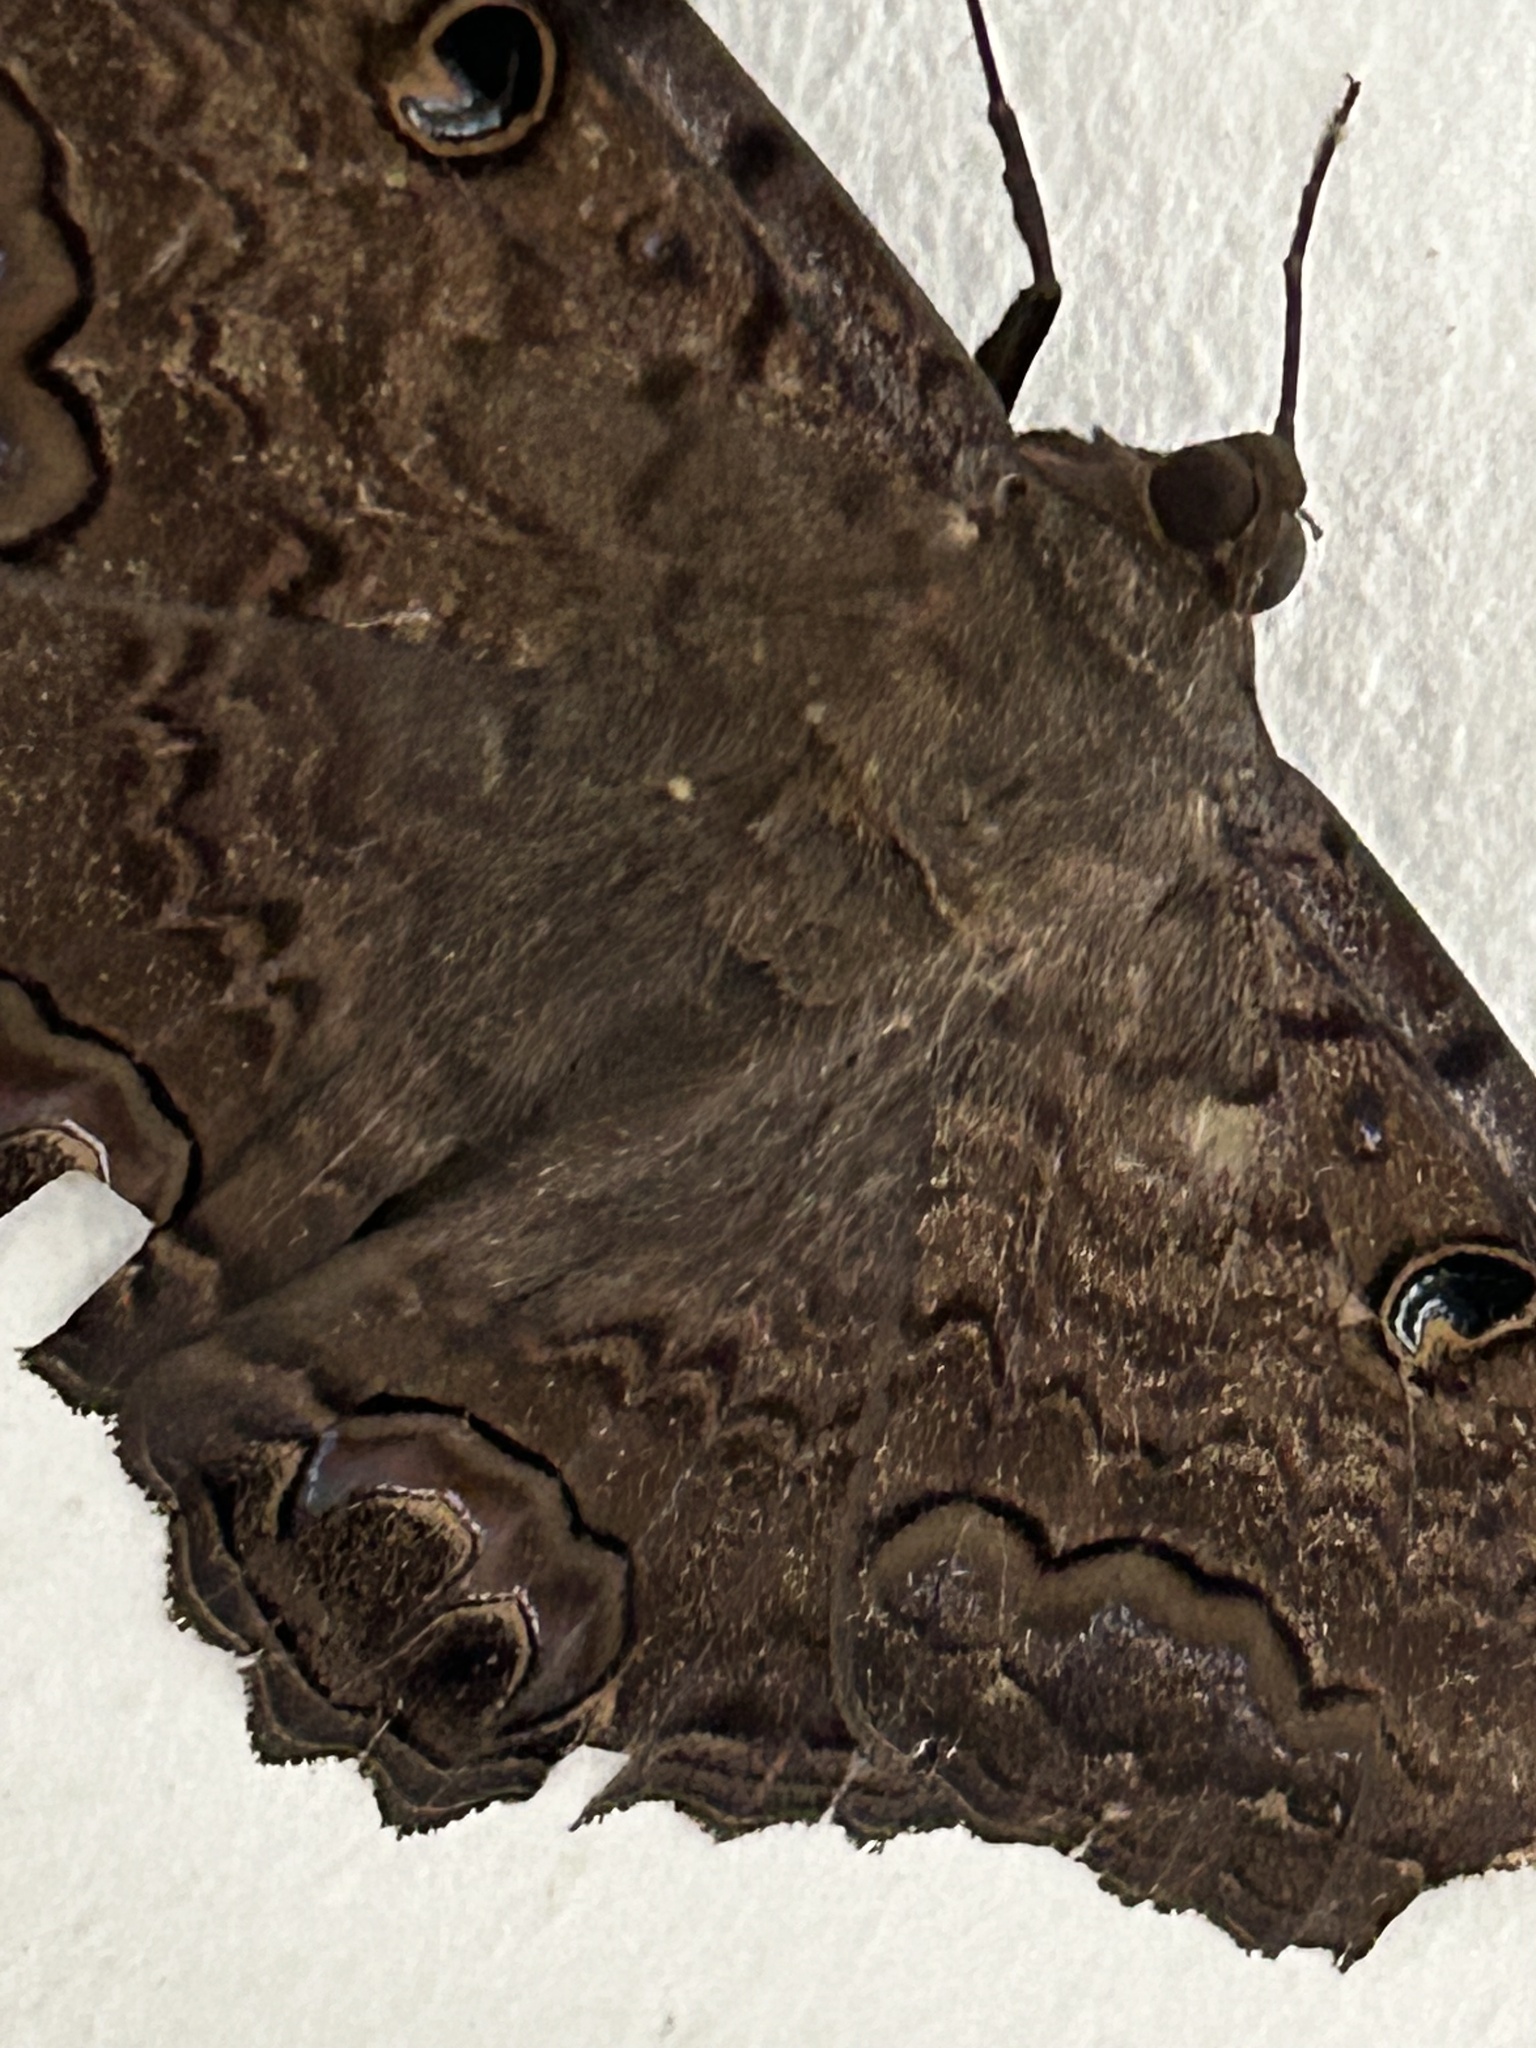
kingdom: Animalia
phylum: Arthropoda
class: Insecta
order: Lepidoptera
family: Erebidae
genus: Ascalapha
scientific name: Ascalapha odorata
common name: Black witch
